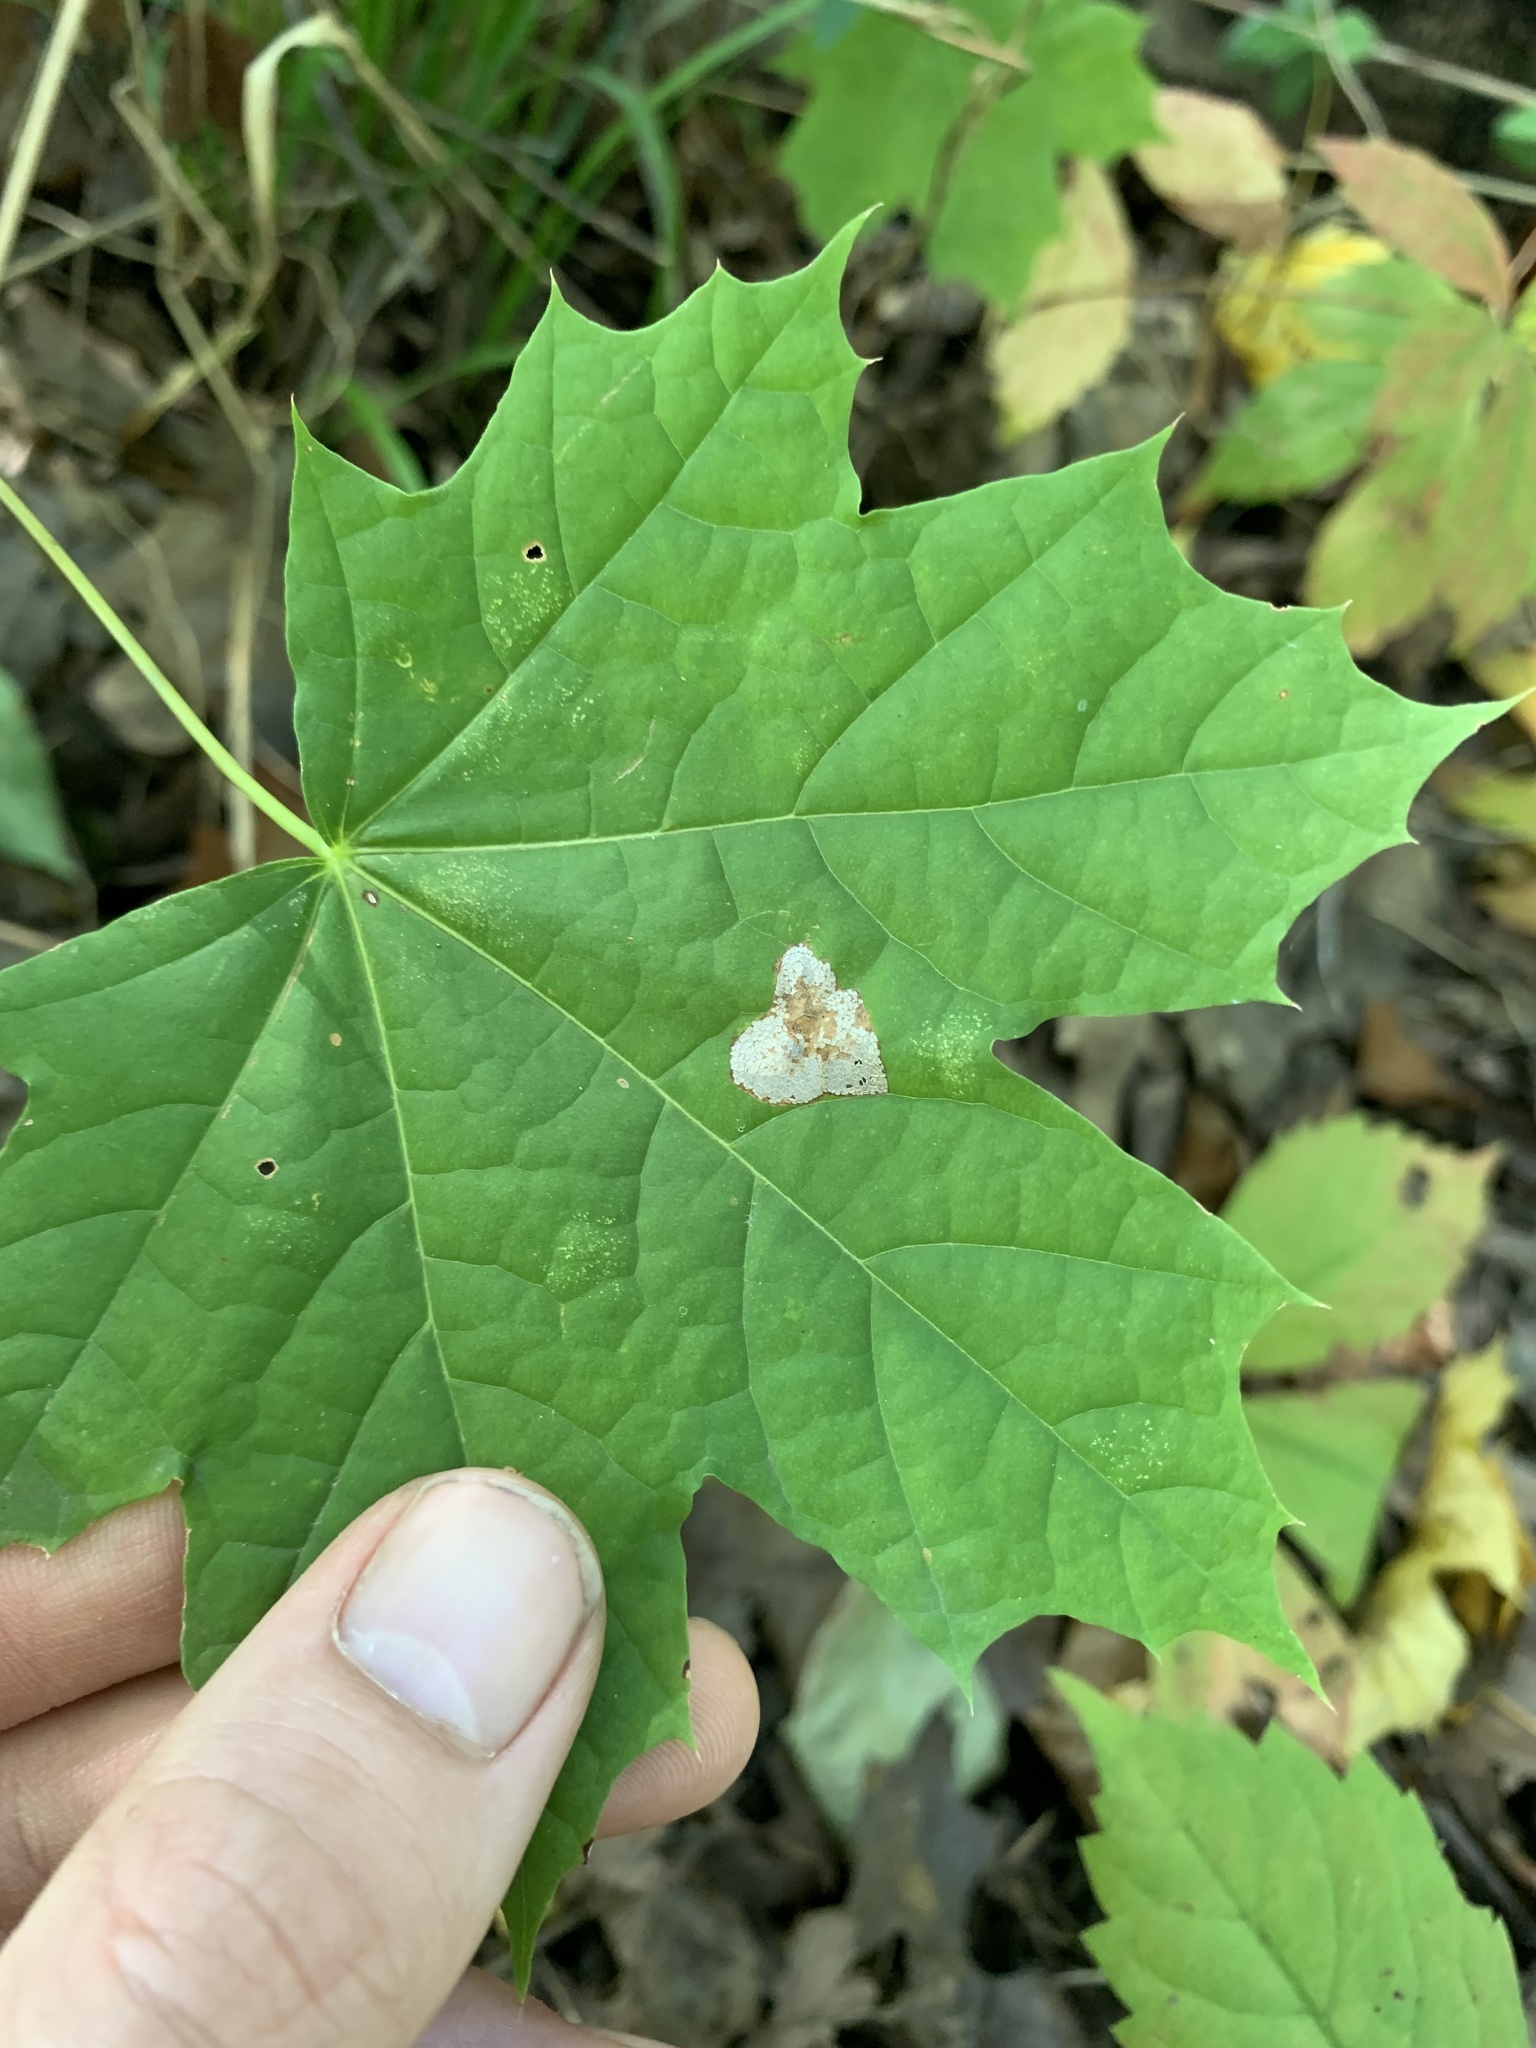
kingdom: Plantae
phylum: Tracheophyta
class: Magnoliopsida
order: Sapindales
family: Sapindaceae
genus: Acer
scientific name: Acer platanoides
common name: Norway maple
